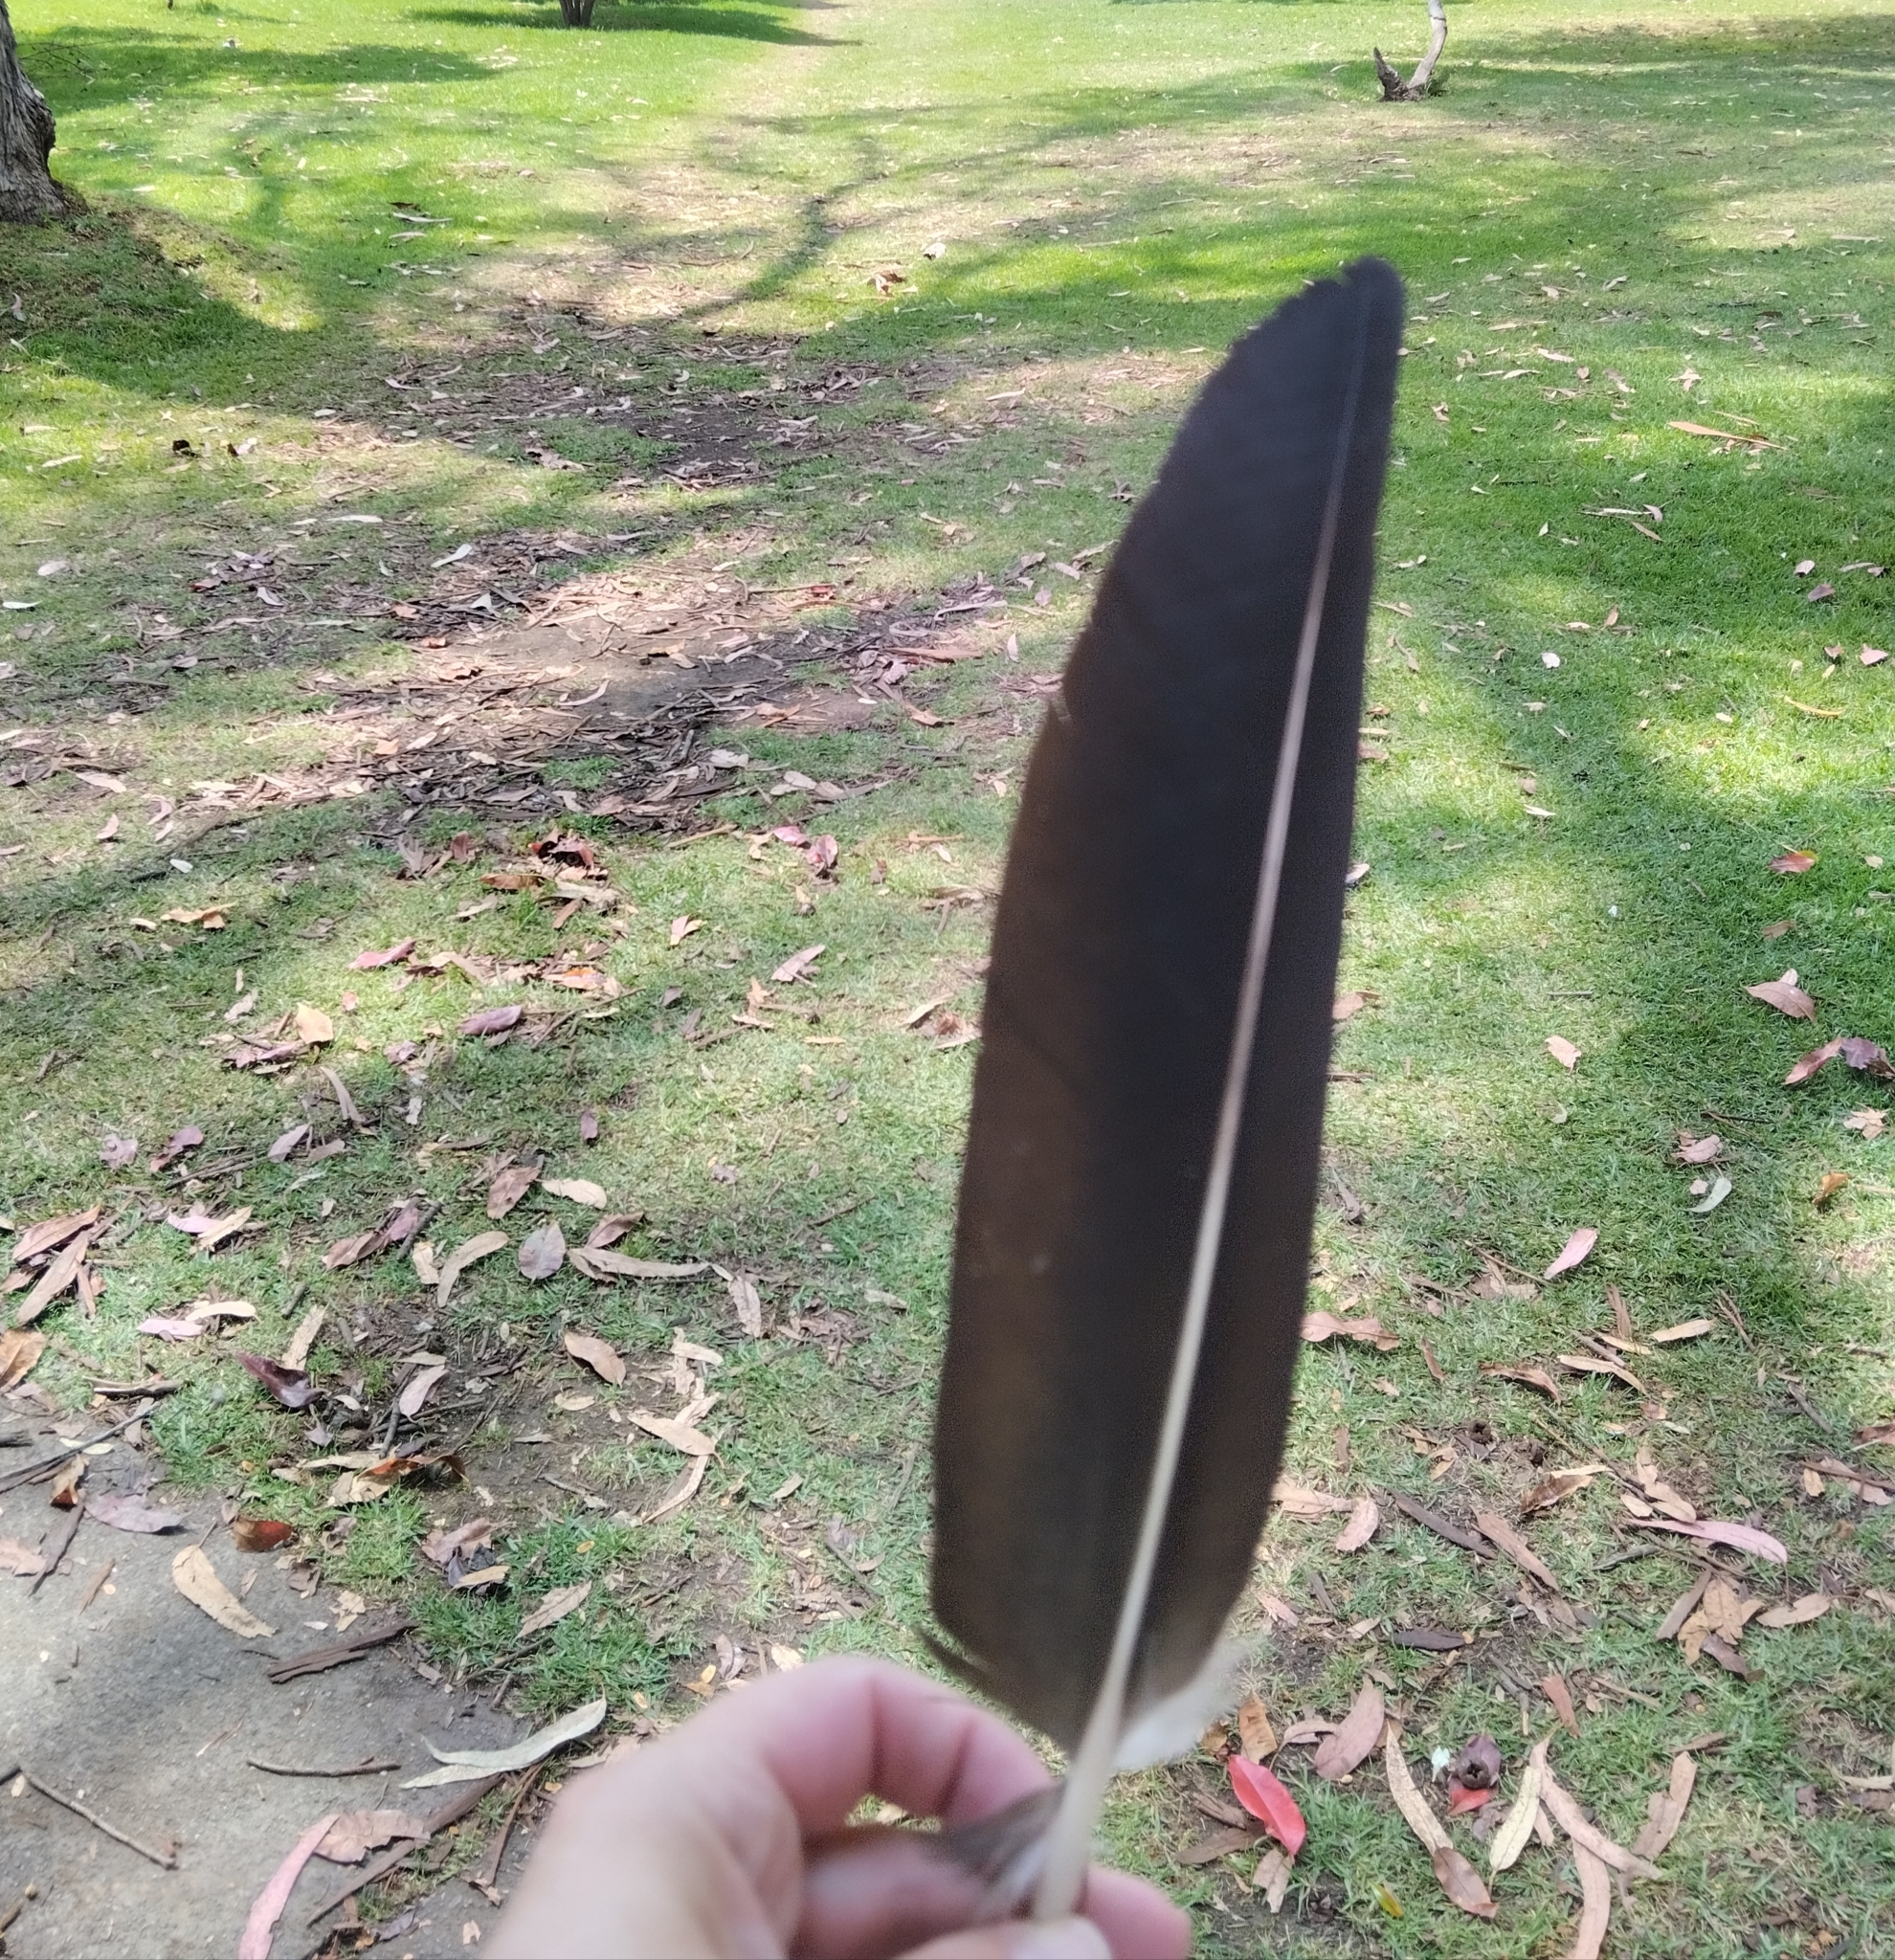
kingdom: Animalia
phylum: Chordata
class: Aves
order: Accipitriformes
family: Cathartidae
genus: Coragyps
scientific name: Coragyps atratus
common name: Black vulture
